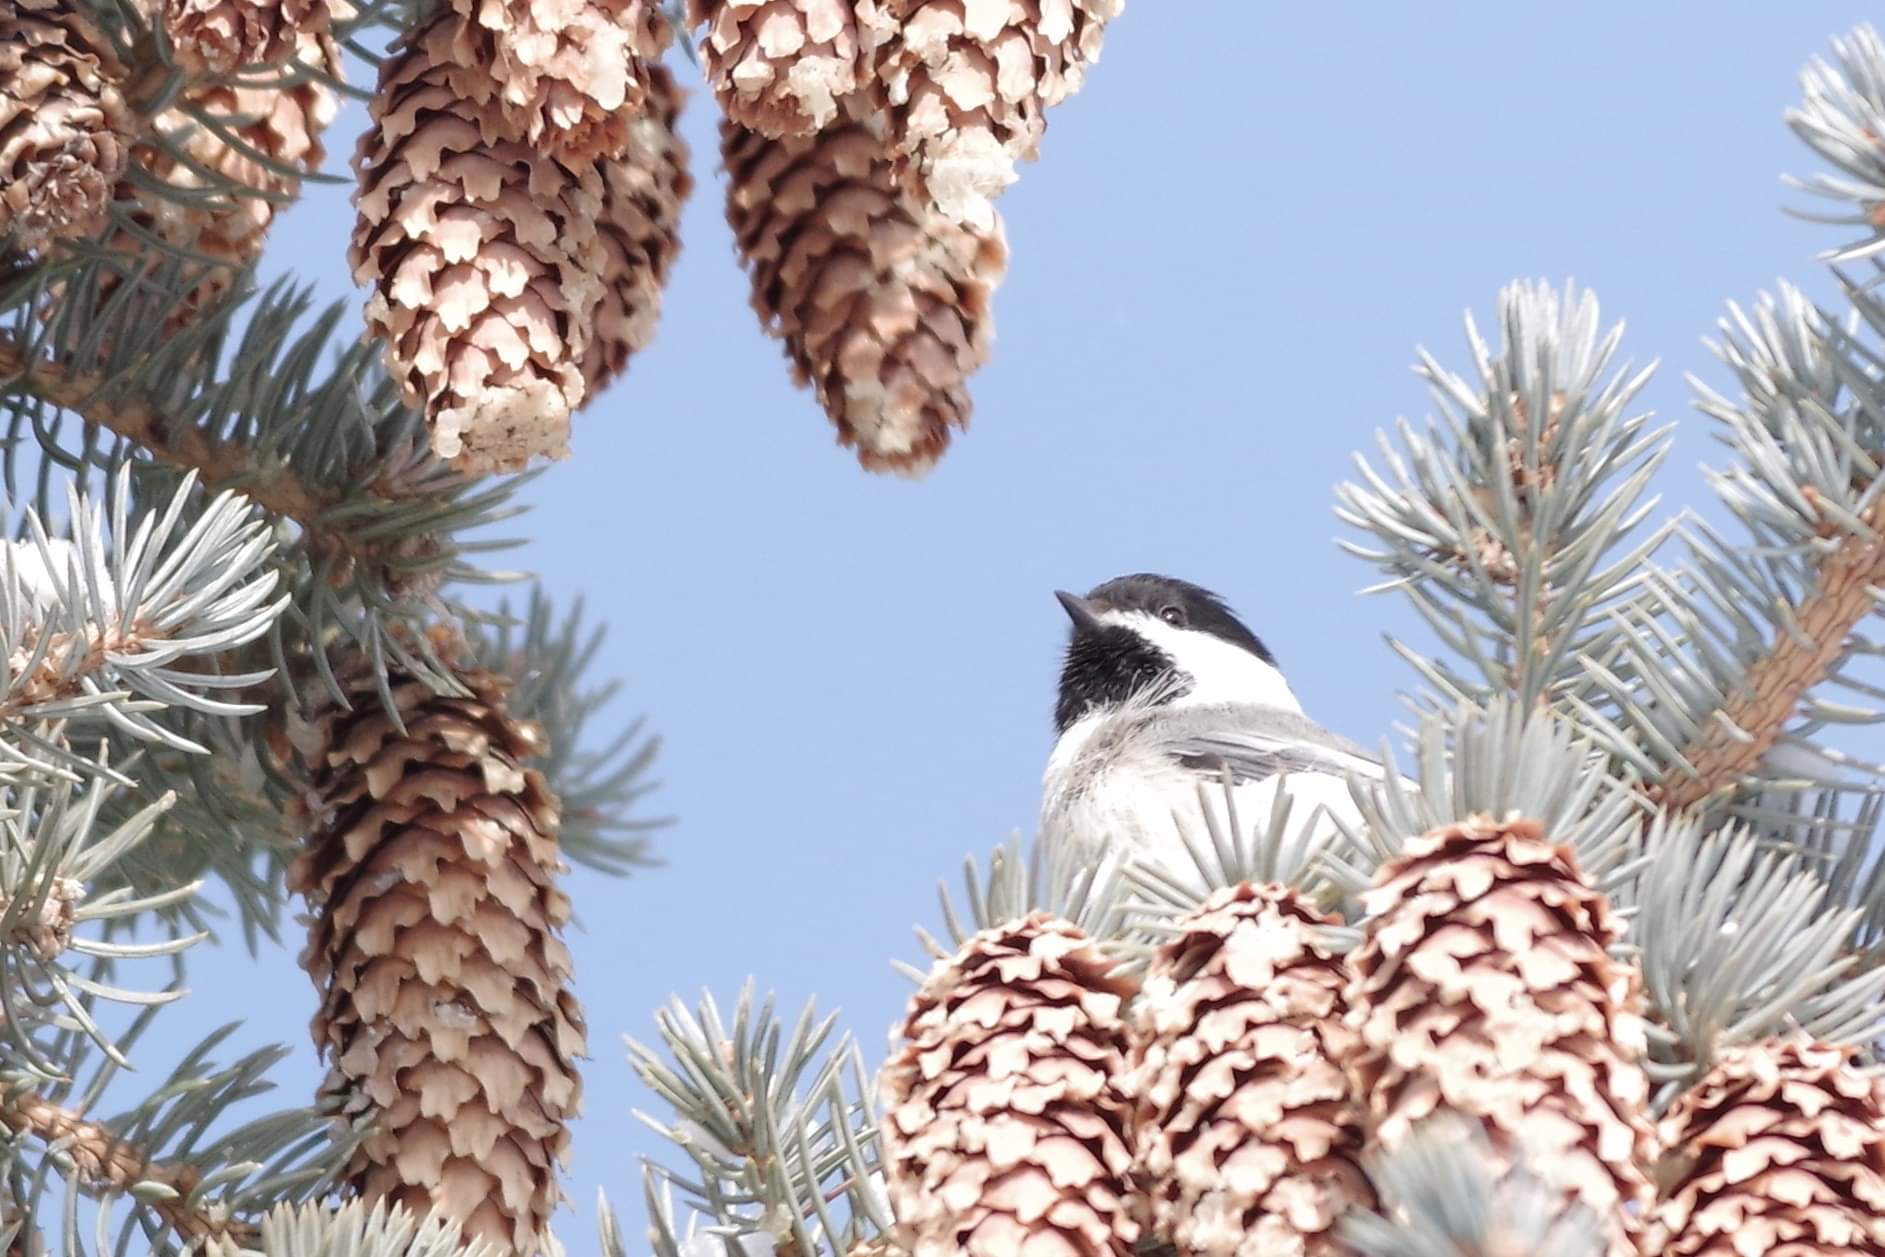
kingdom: Animalia
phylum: Chordata
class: Aves
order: Passeriformes
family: Paridae
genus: Poecile
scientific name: Poecile atricapillus
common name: Black-capped chickadee
